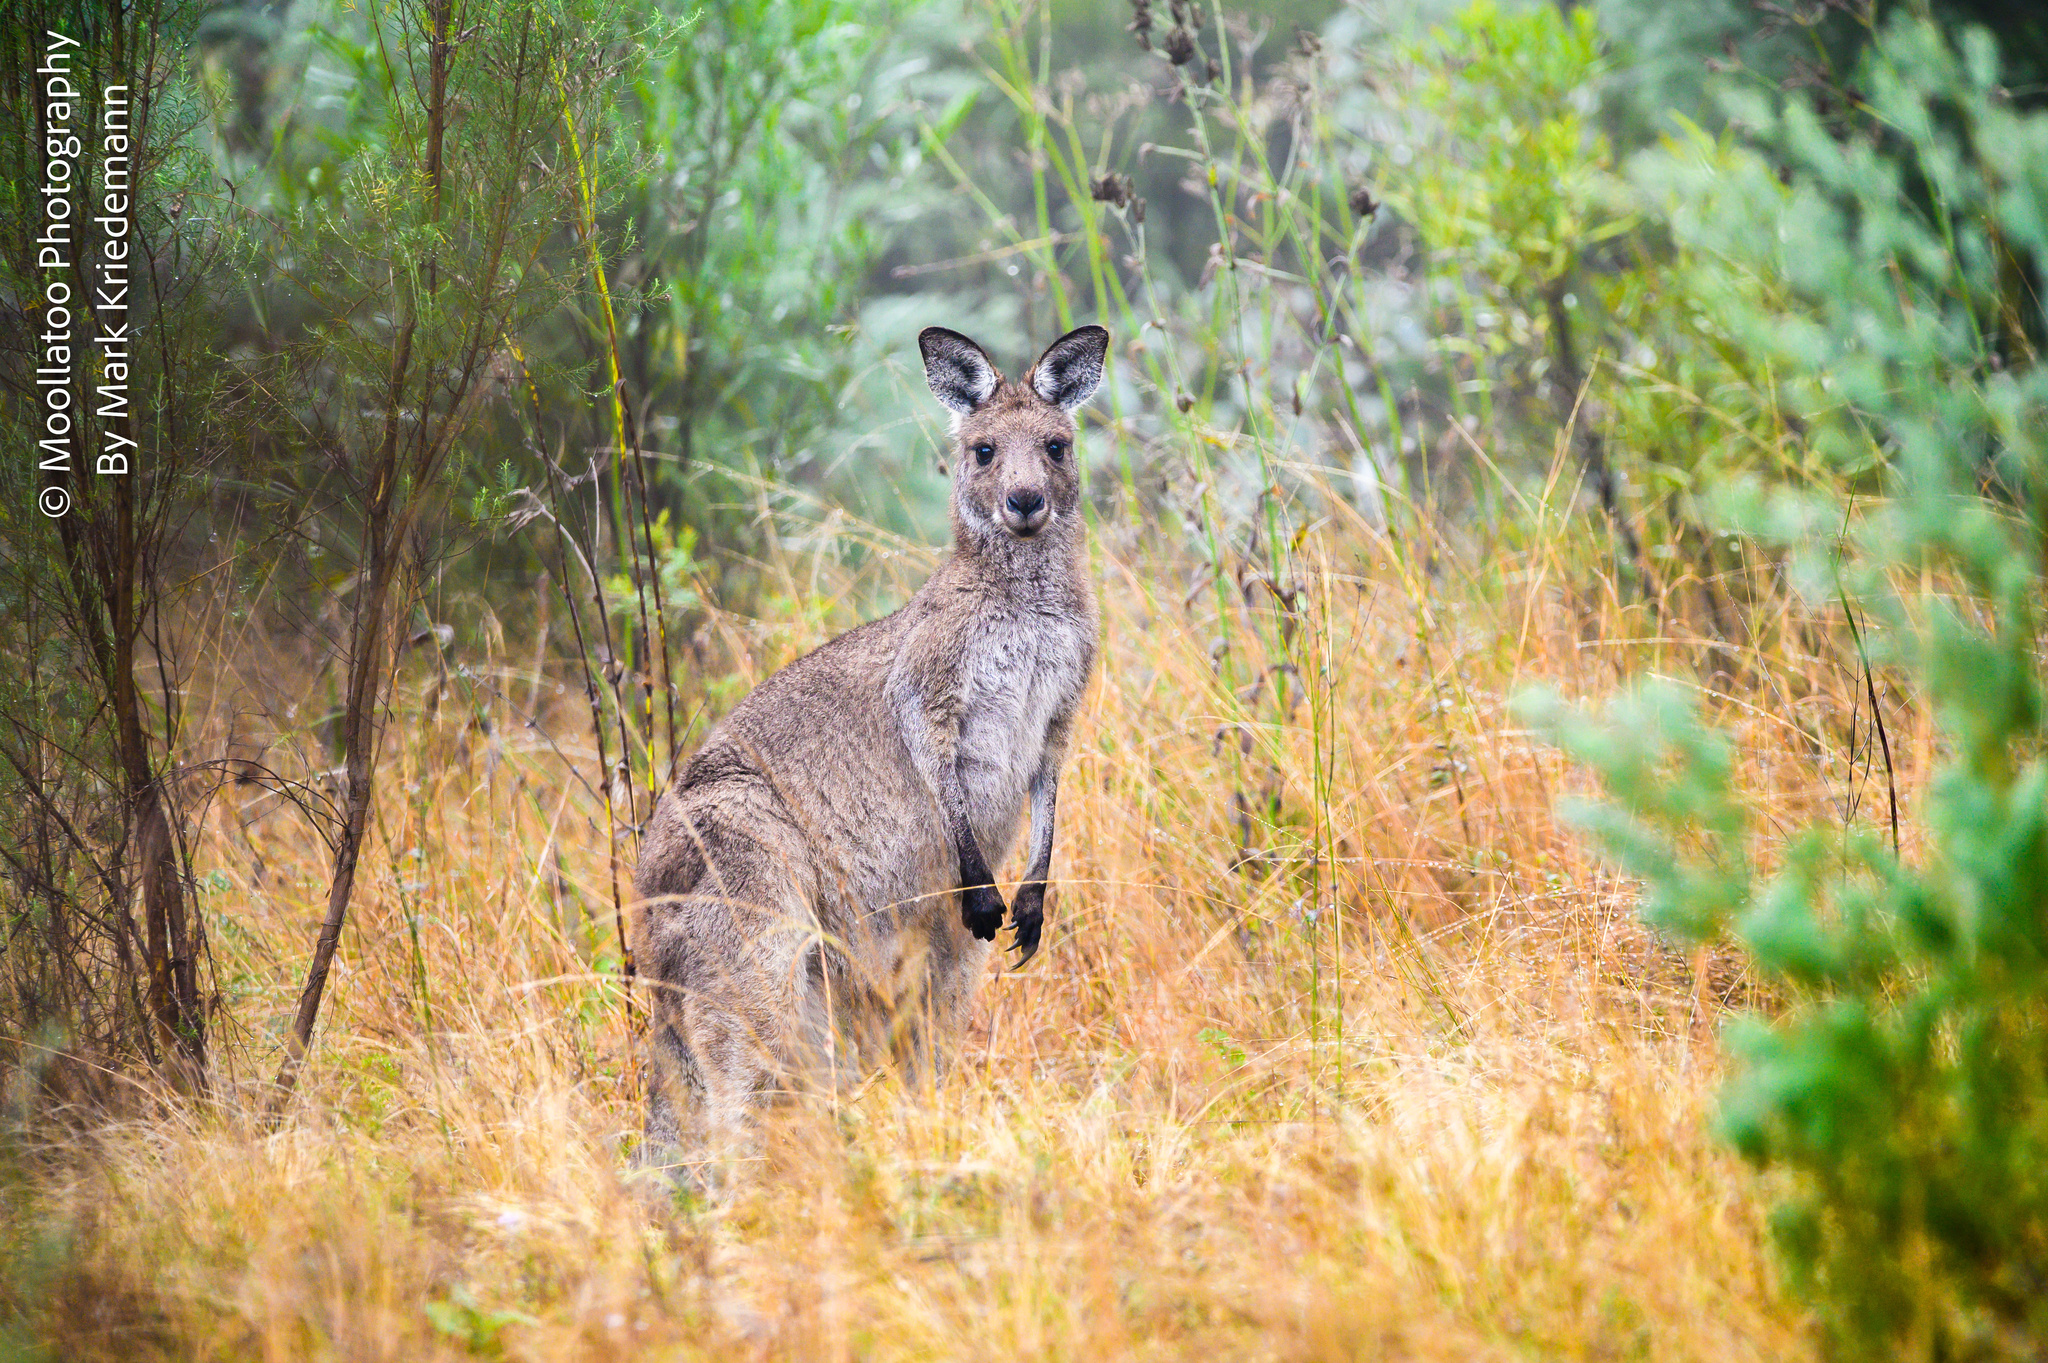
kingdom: Animalia
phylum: Chordata
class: Mammalia
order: Diprotodontia
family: Macropodidae
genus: Macropus
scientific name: Macropus giganteus
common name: Eastern grey kangaroo
